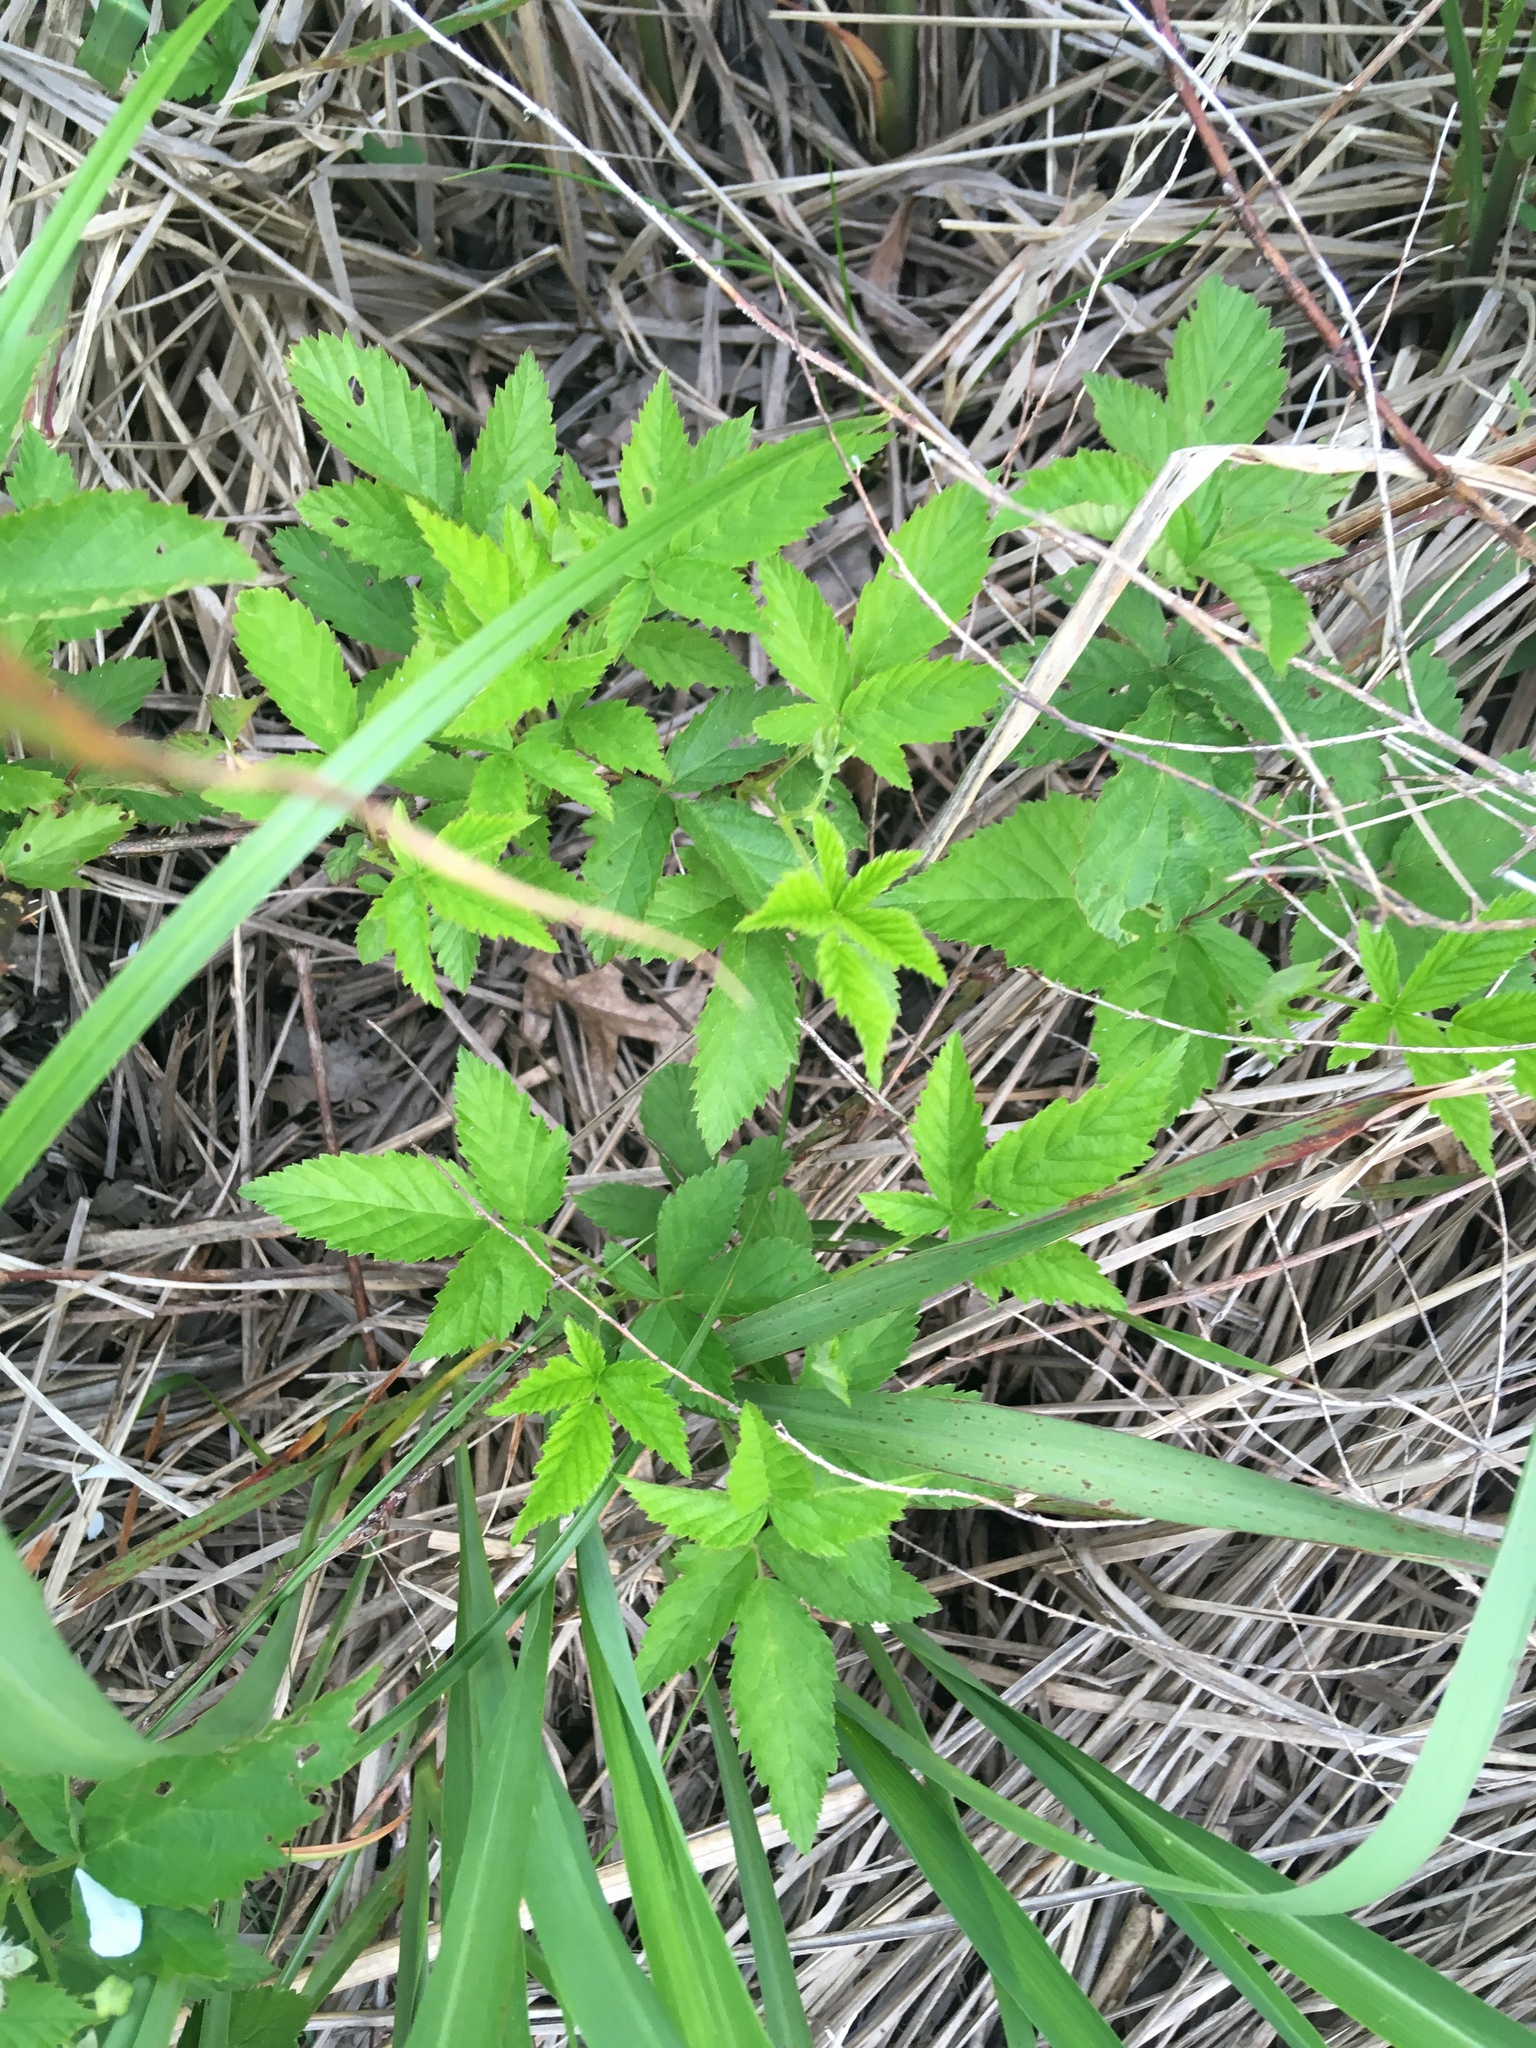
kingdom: Plantae
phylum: Tracheophyta
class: Magnoliopsida
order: Rosales
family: Rosaceae
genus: Rubus
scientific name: Rubus pensilvanicus
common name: Pennsylvania blackberry
